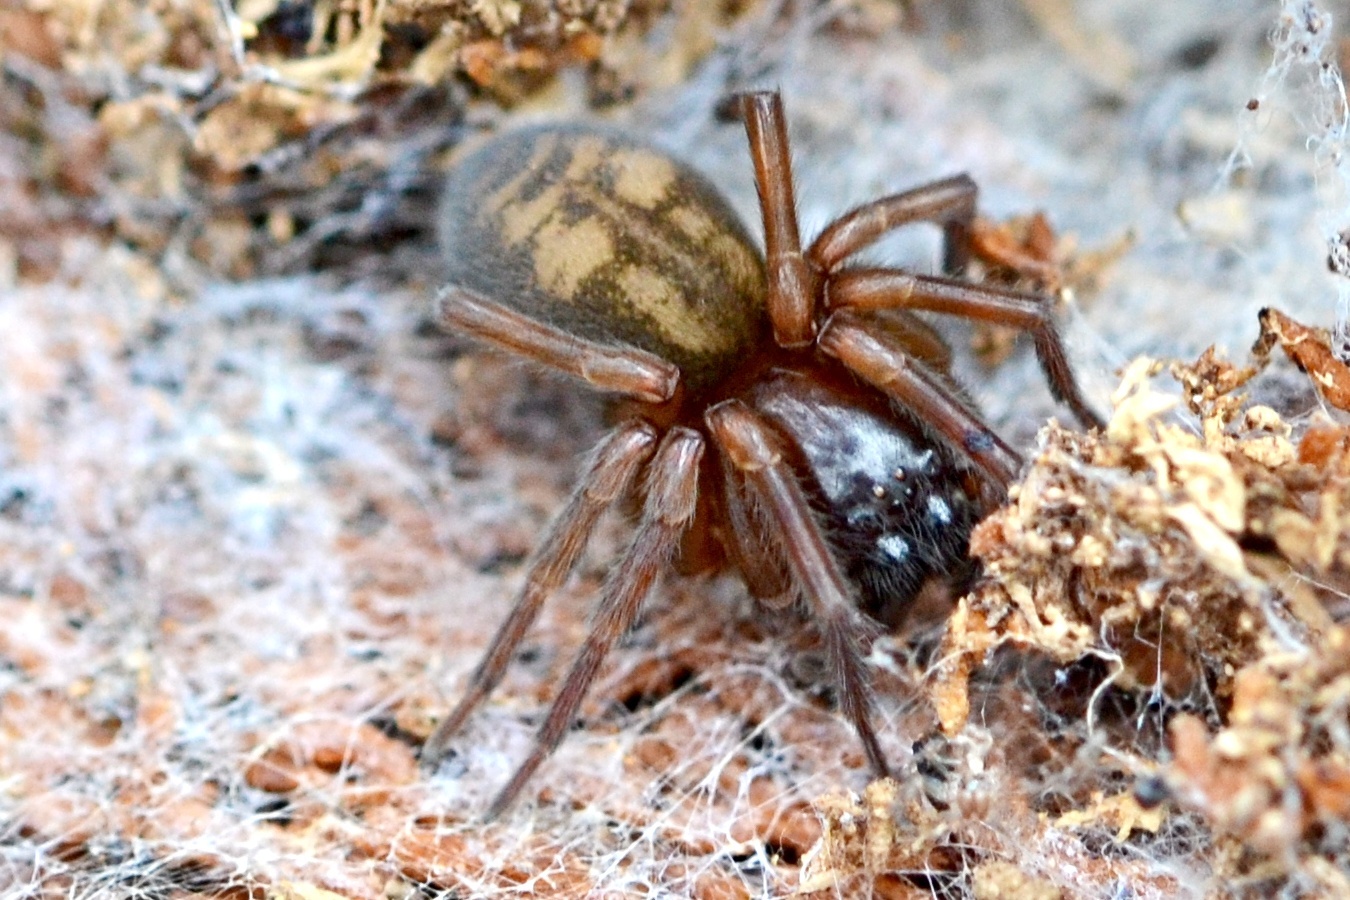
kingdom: Animalia
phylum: Arthropoda
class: Arachnida
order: Araneae
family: Amaurobiidae
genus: Callobius
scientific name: Callobius claustrarius
